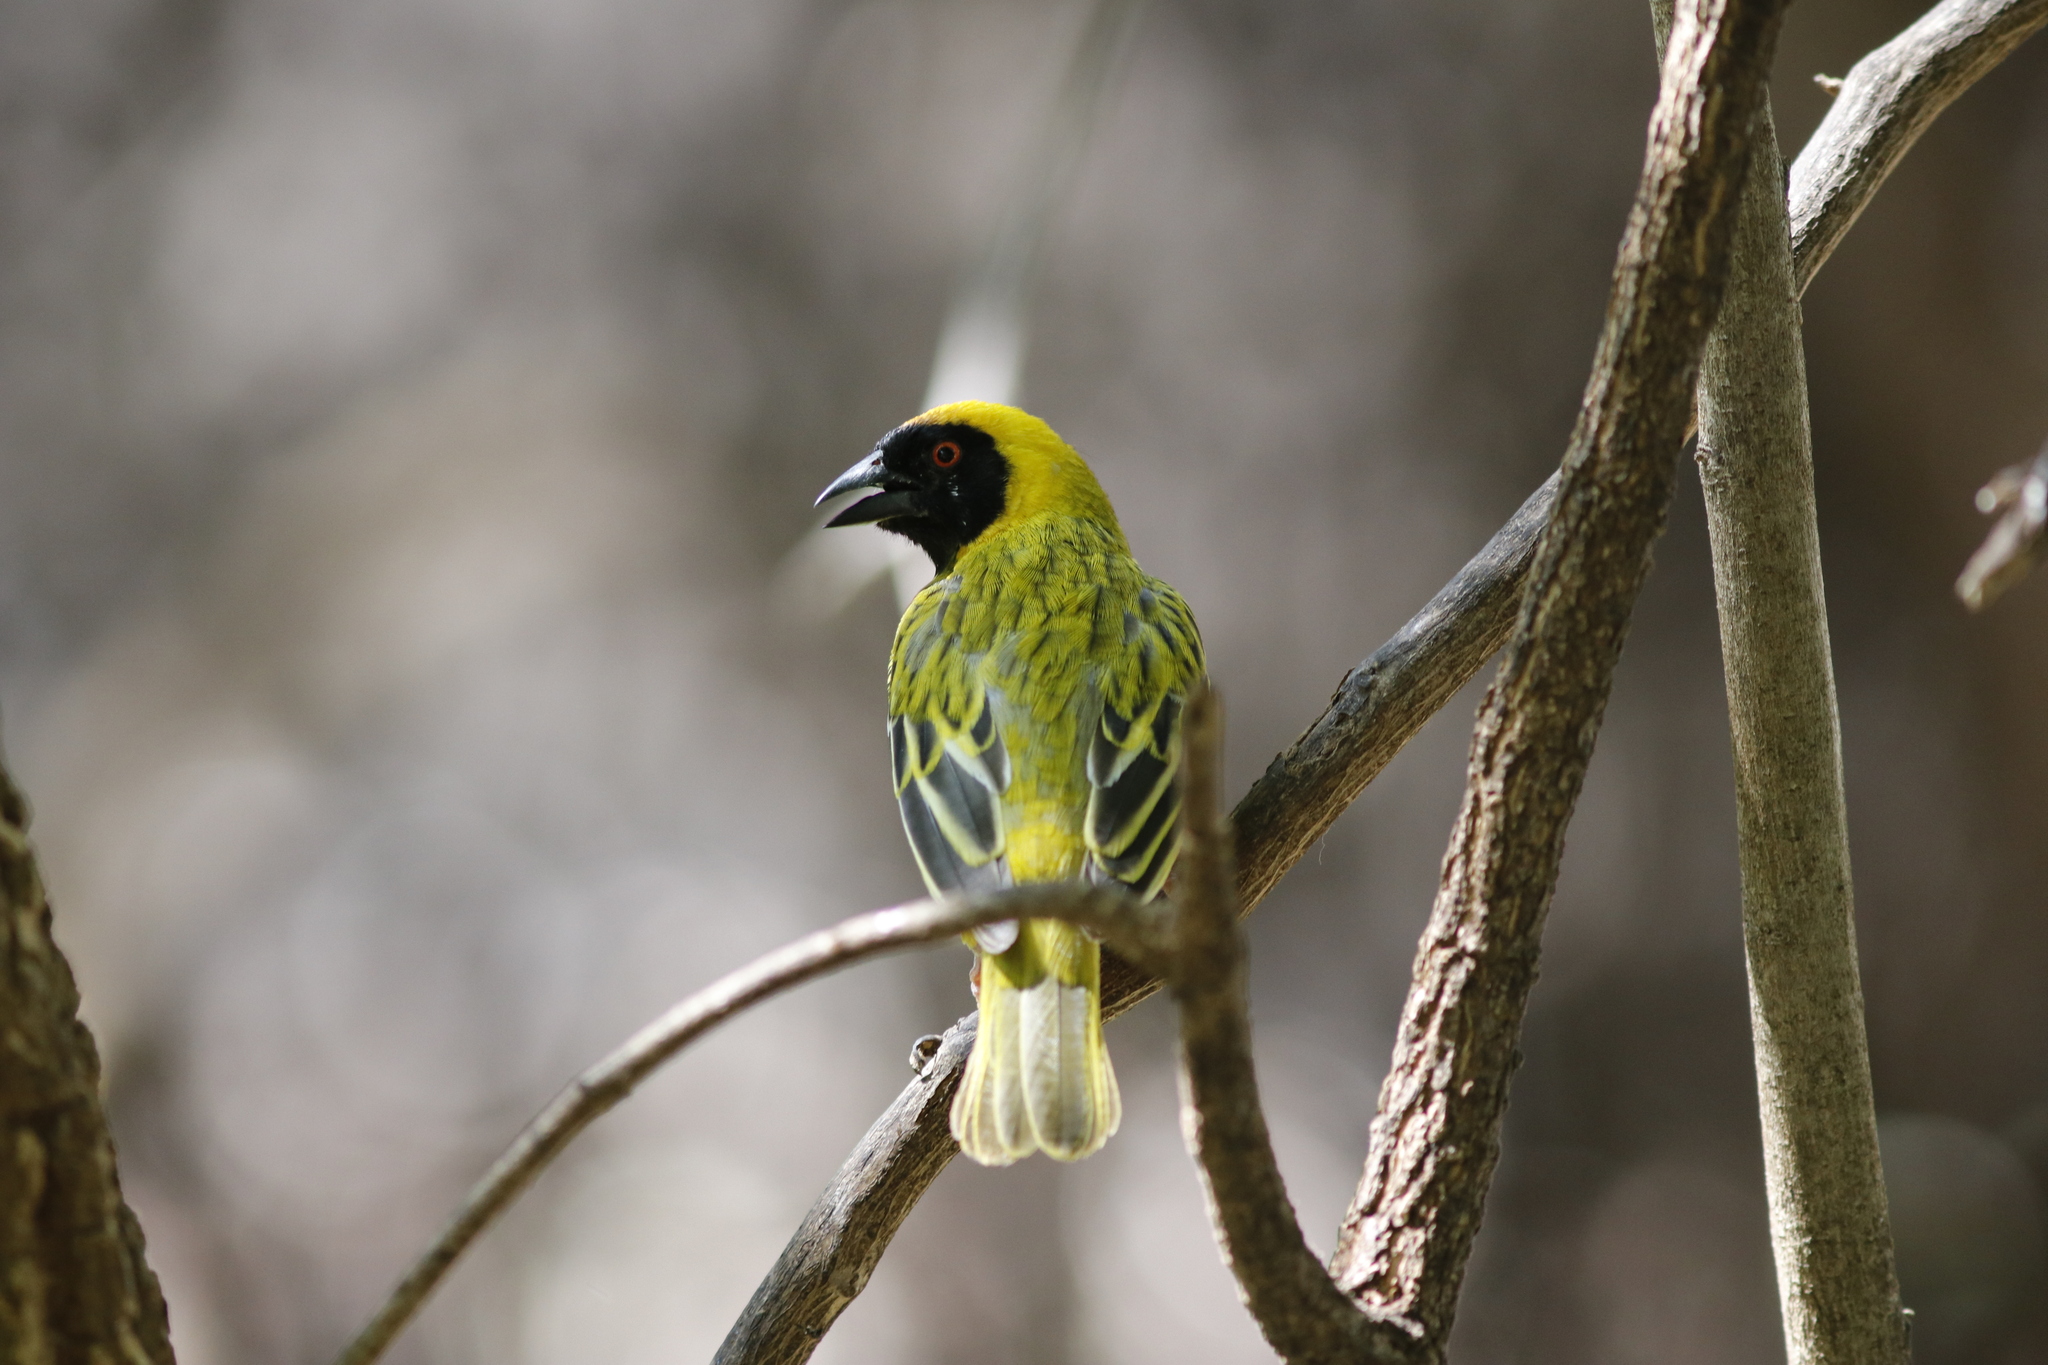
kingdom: Animalia
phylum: Chordata
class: Aves
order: Passeriformes
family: Ploceidae
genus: Ploceus
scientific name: Ploceus velatus
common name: Southern masked weaver
